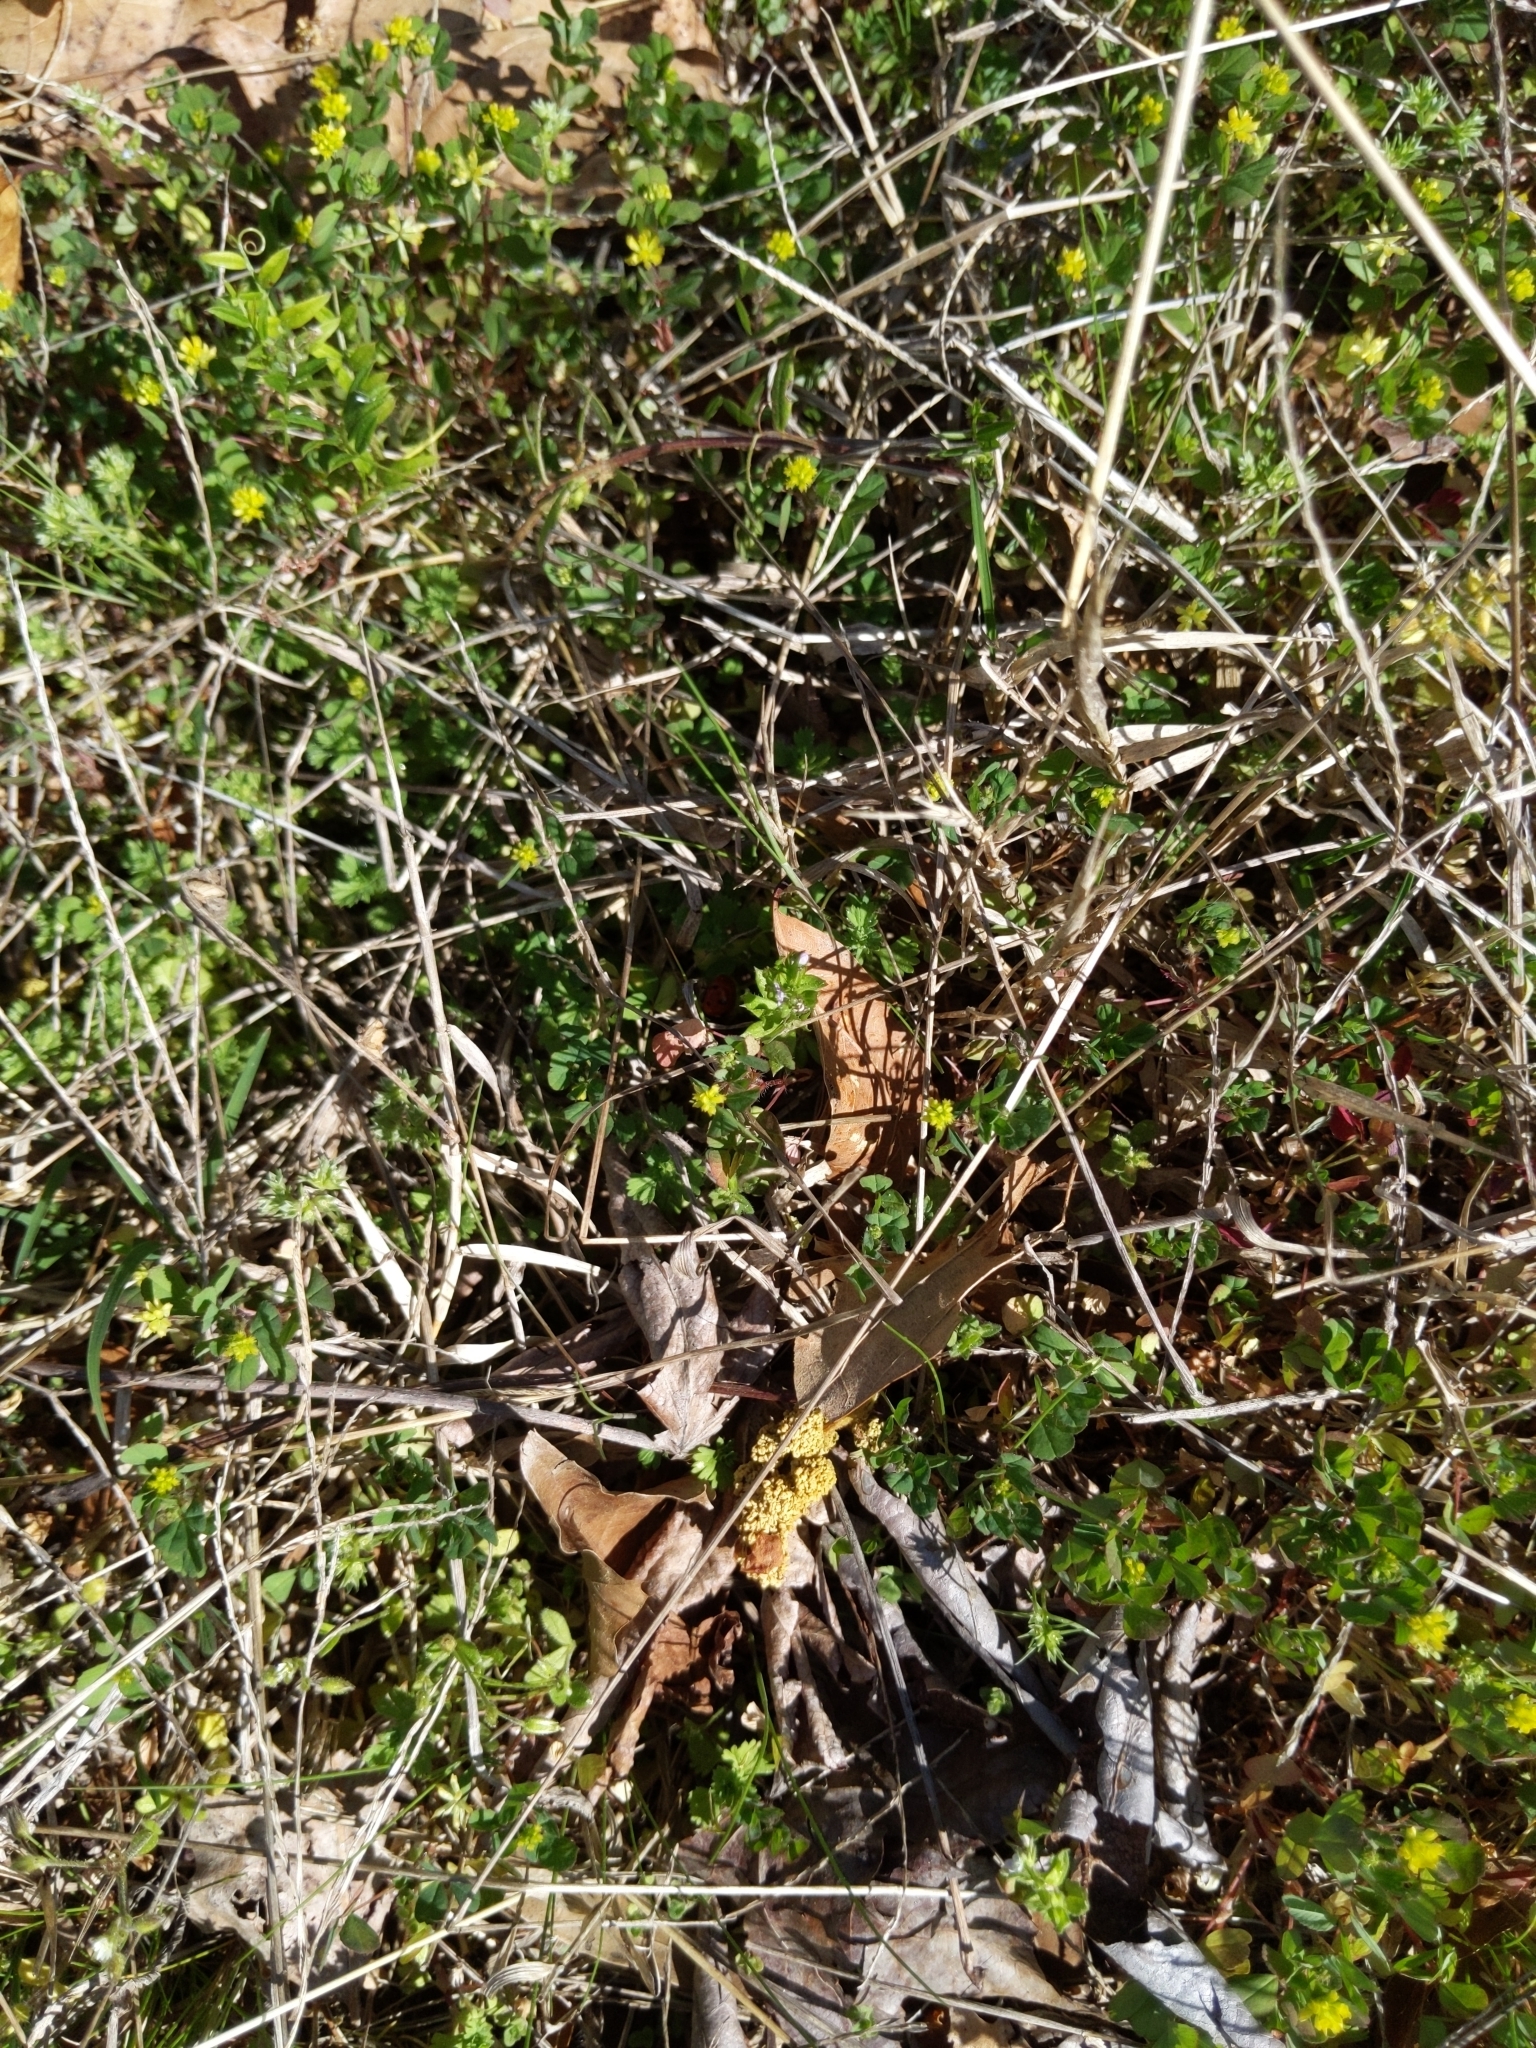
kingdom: Animalia
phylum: Arthropoda
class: Insecta
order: Coleoptera
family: Coccinellidae
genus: Coccinella
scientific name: Coccinella septempunctata
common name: Sevenspotted lady beetle
